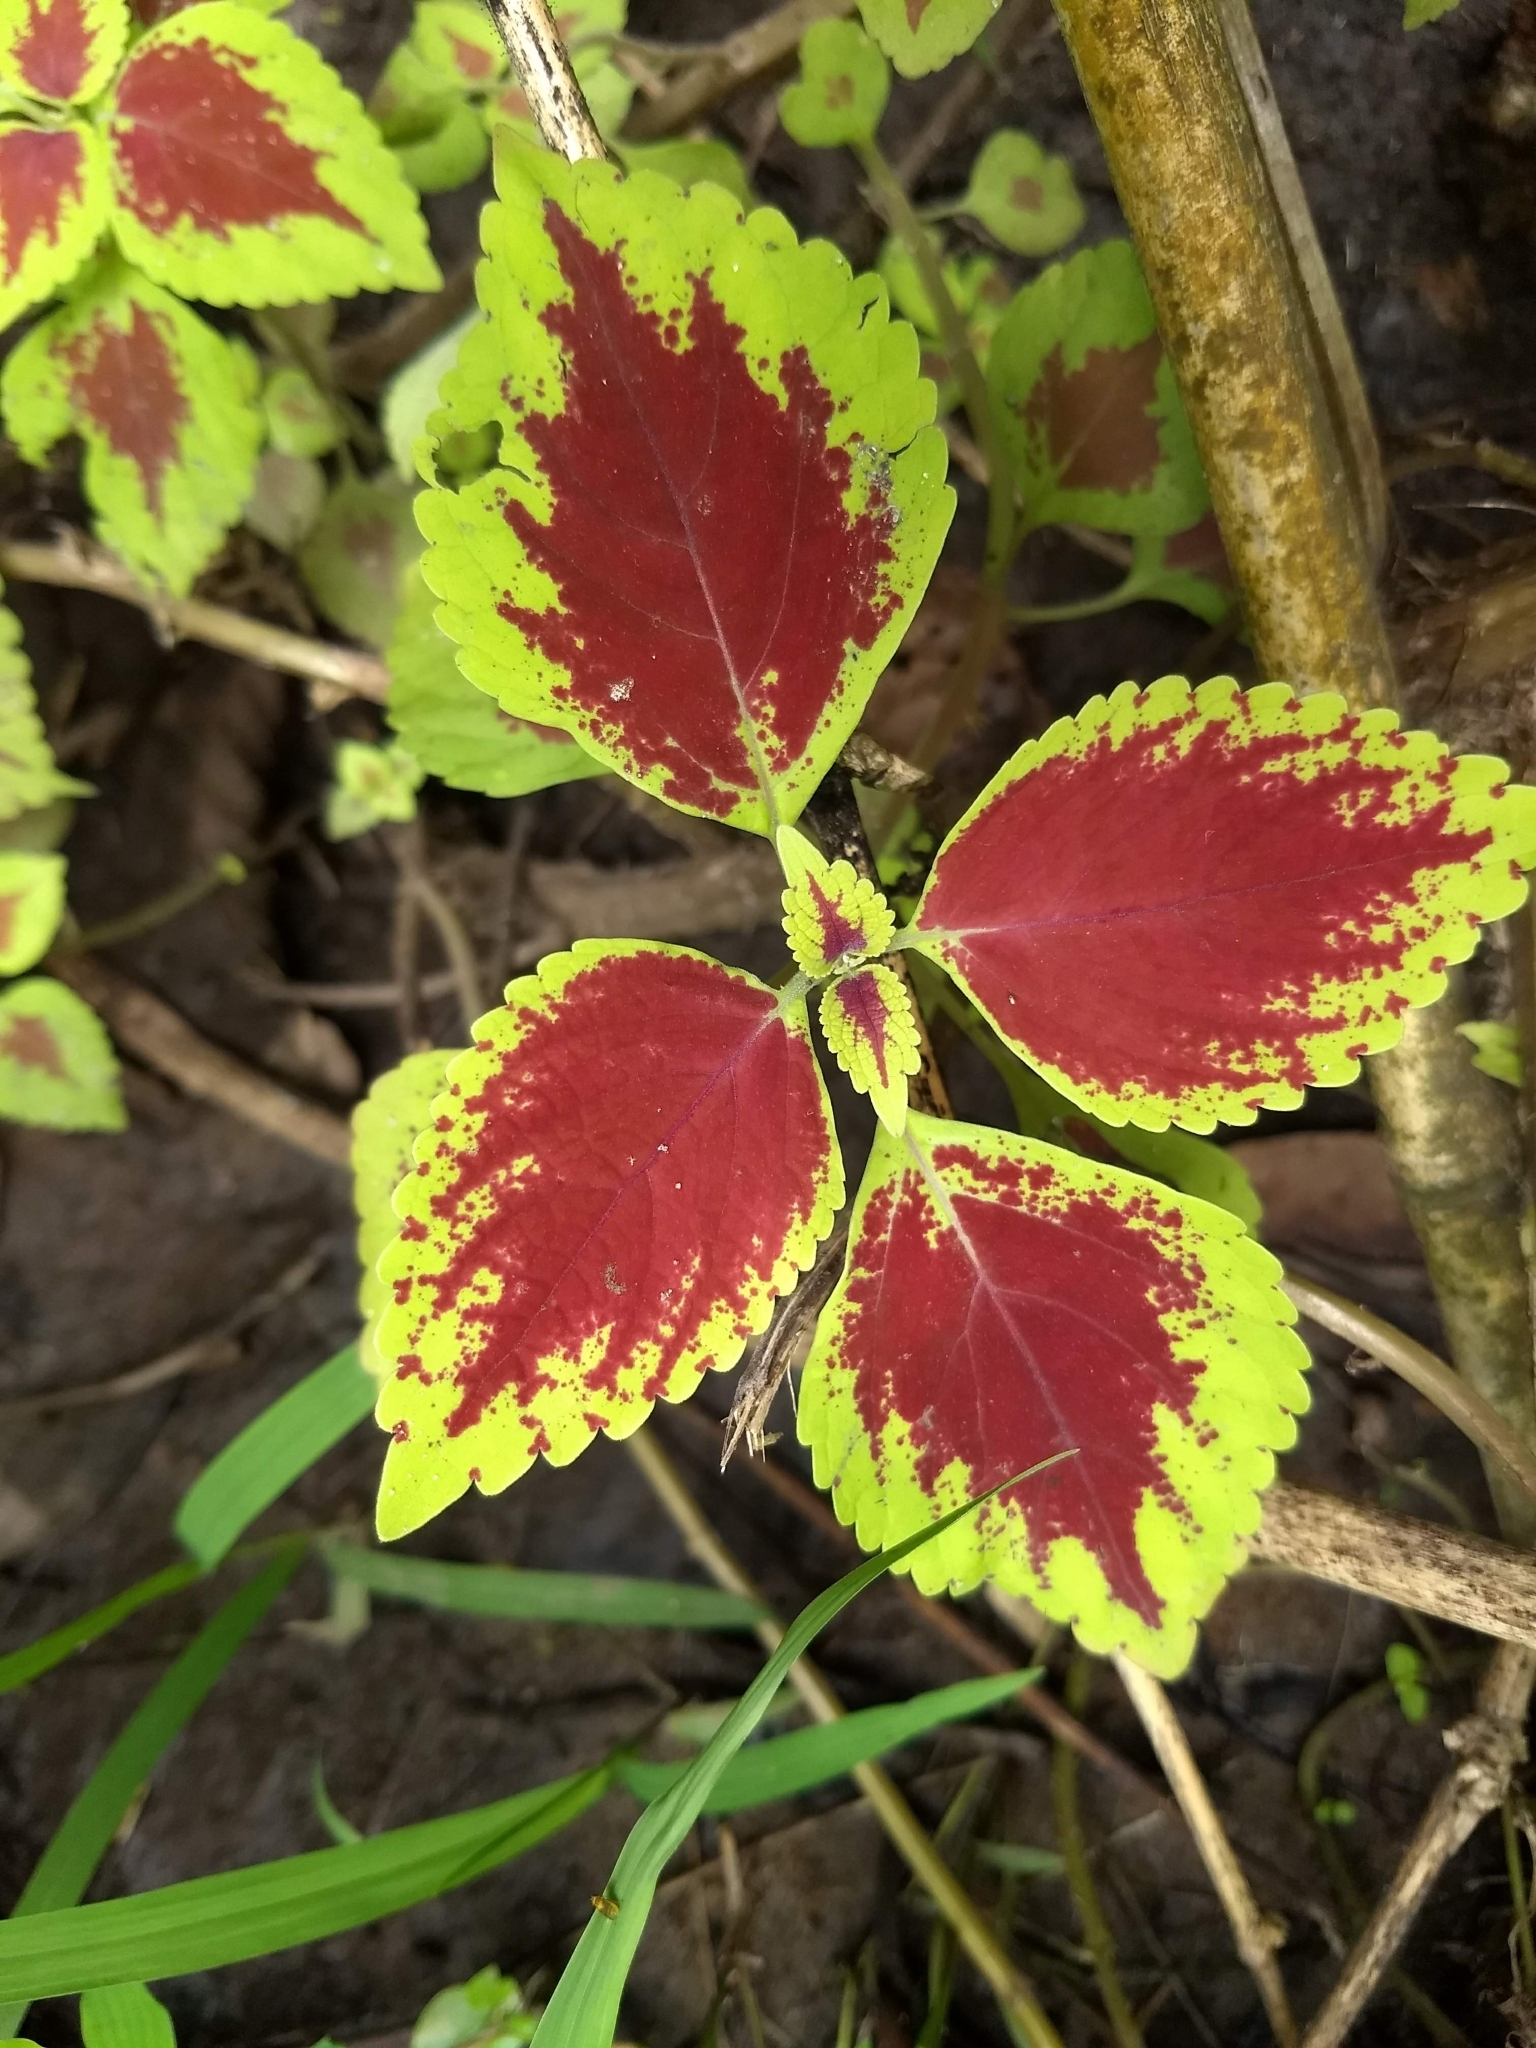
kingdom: Plantae
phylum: Tracheophyta
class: Magnoliopsida
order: Lamiales
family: Lamiaceae
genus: Coleus
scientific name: Coleus scutellarioides
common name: Coleus
